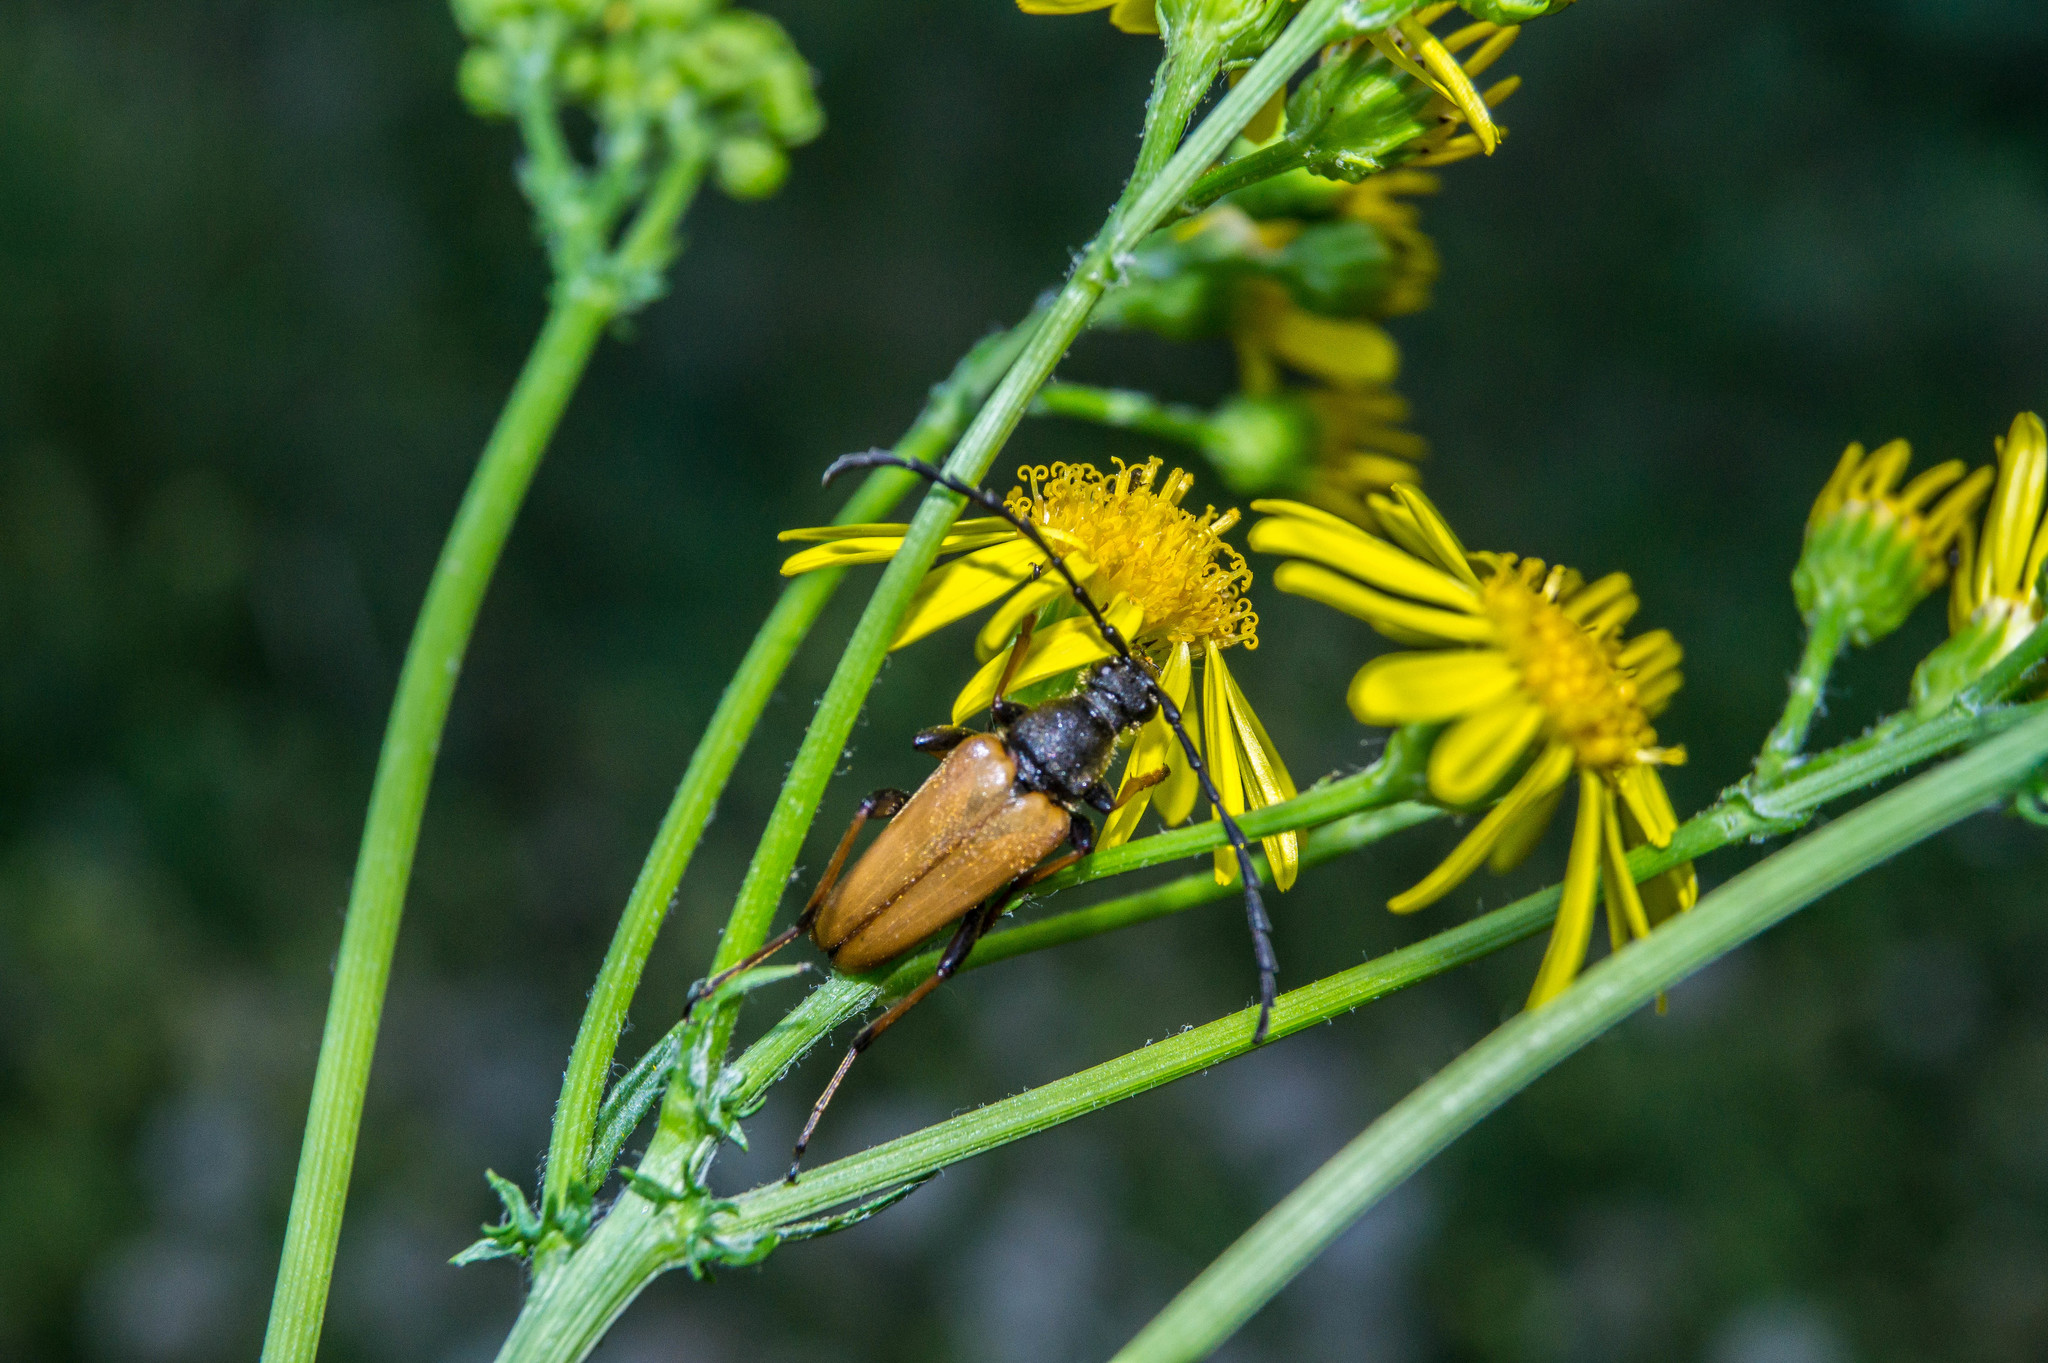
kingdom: Animalia
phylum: Arthropoda
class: Insecta
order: Coleoptera
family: Cerambycidae
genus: Stictoleptura
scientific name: Stictoleptura rubra
